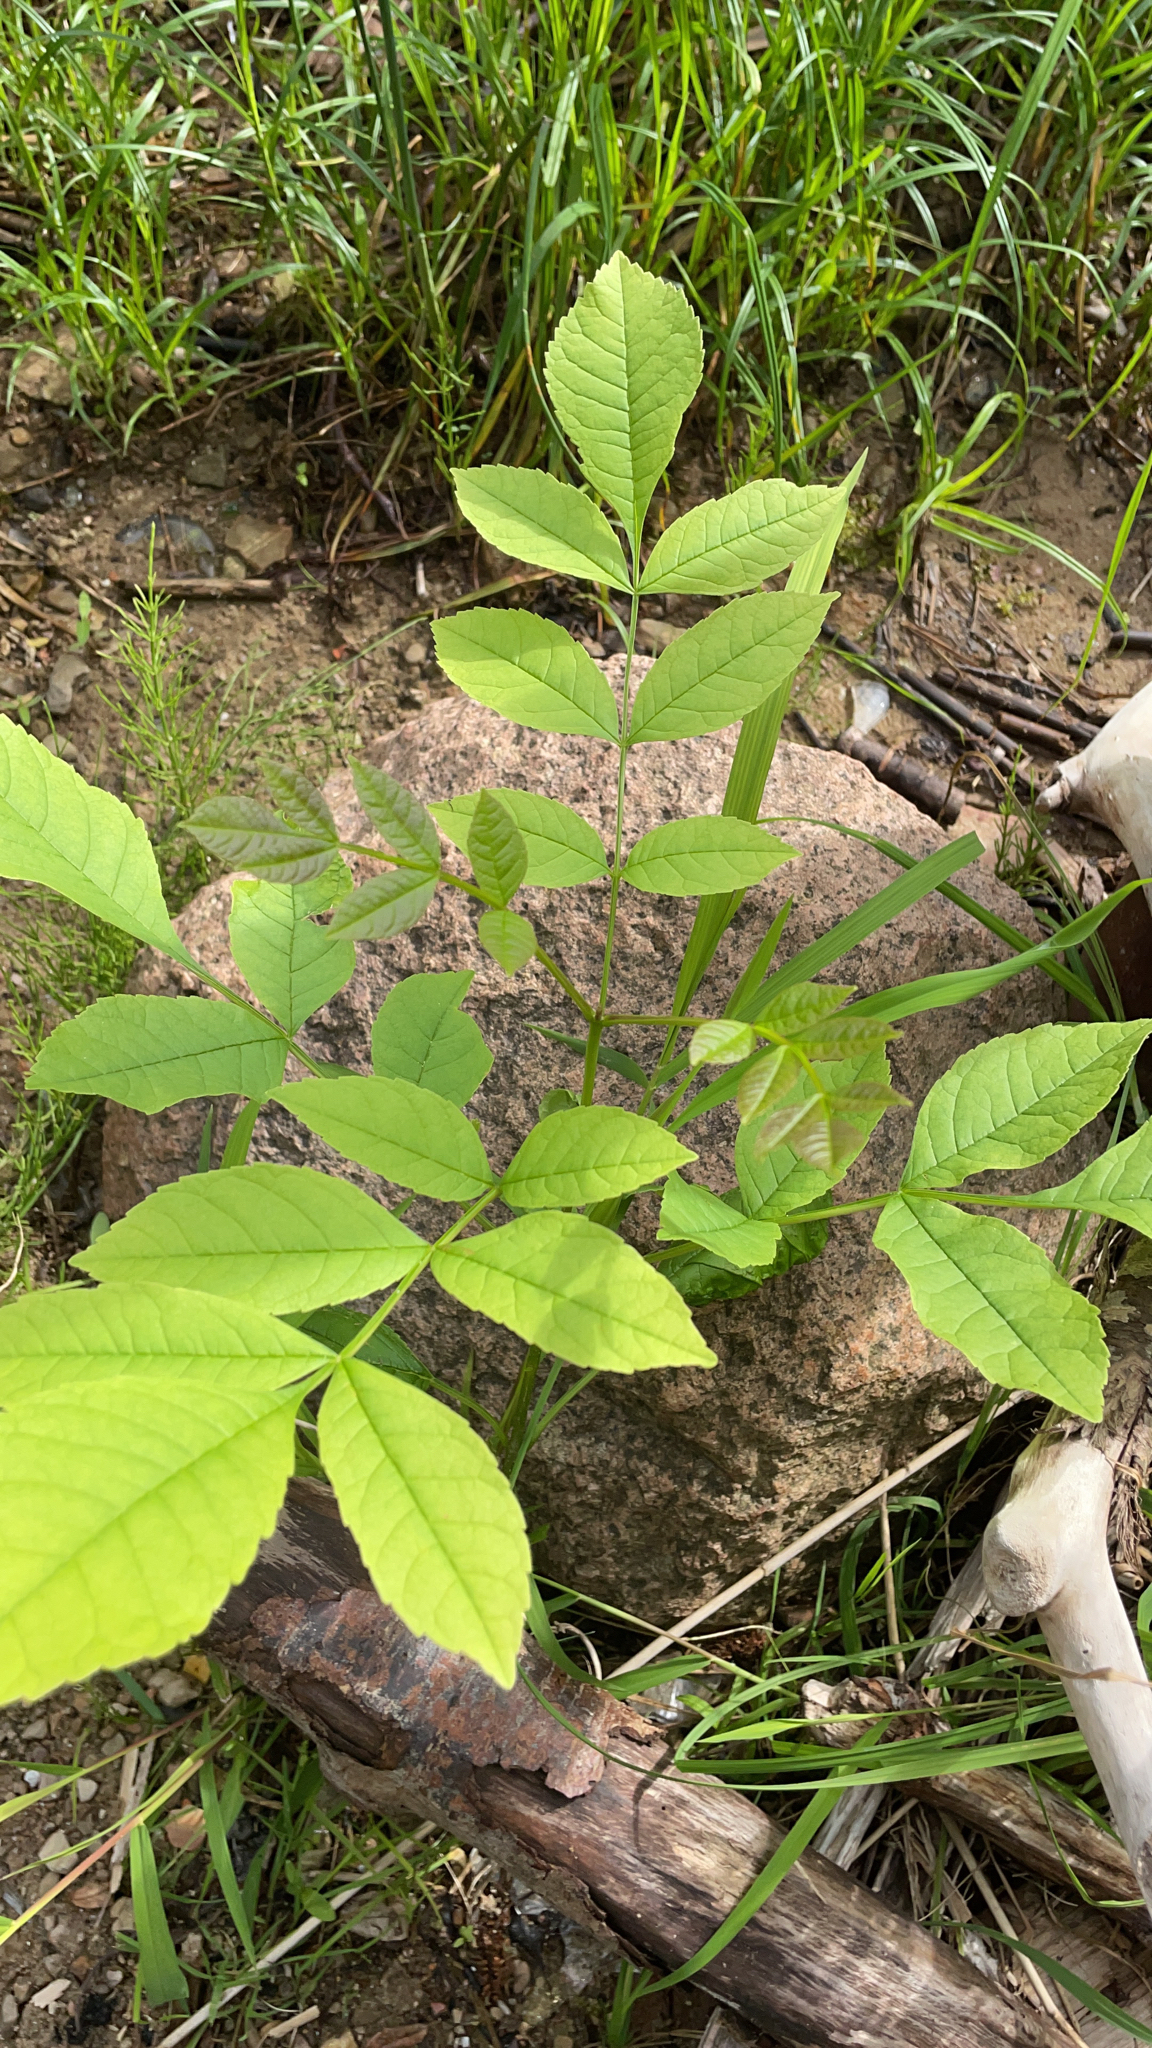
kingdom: Plantae
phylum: Tracheophyta
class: Magnoliopsida
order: Lamiales
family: Oleaceae
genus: Fraxinus
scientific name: Fraxinus pennsylvanica
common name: Green ash
